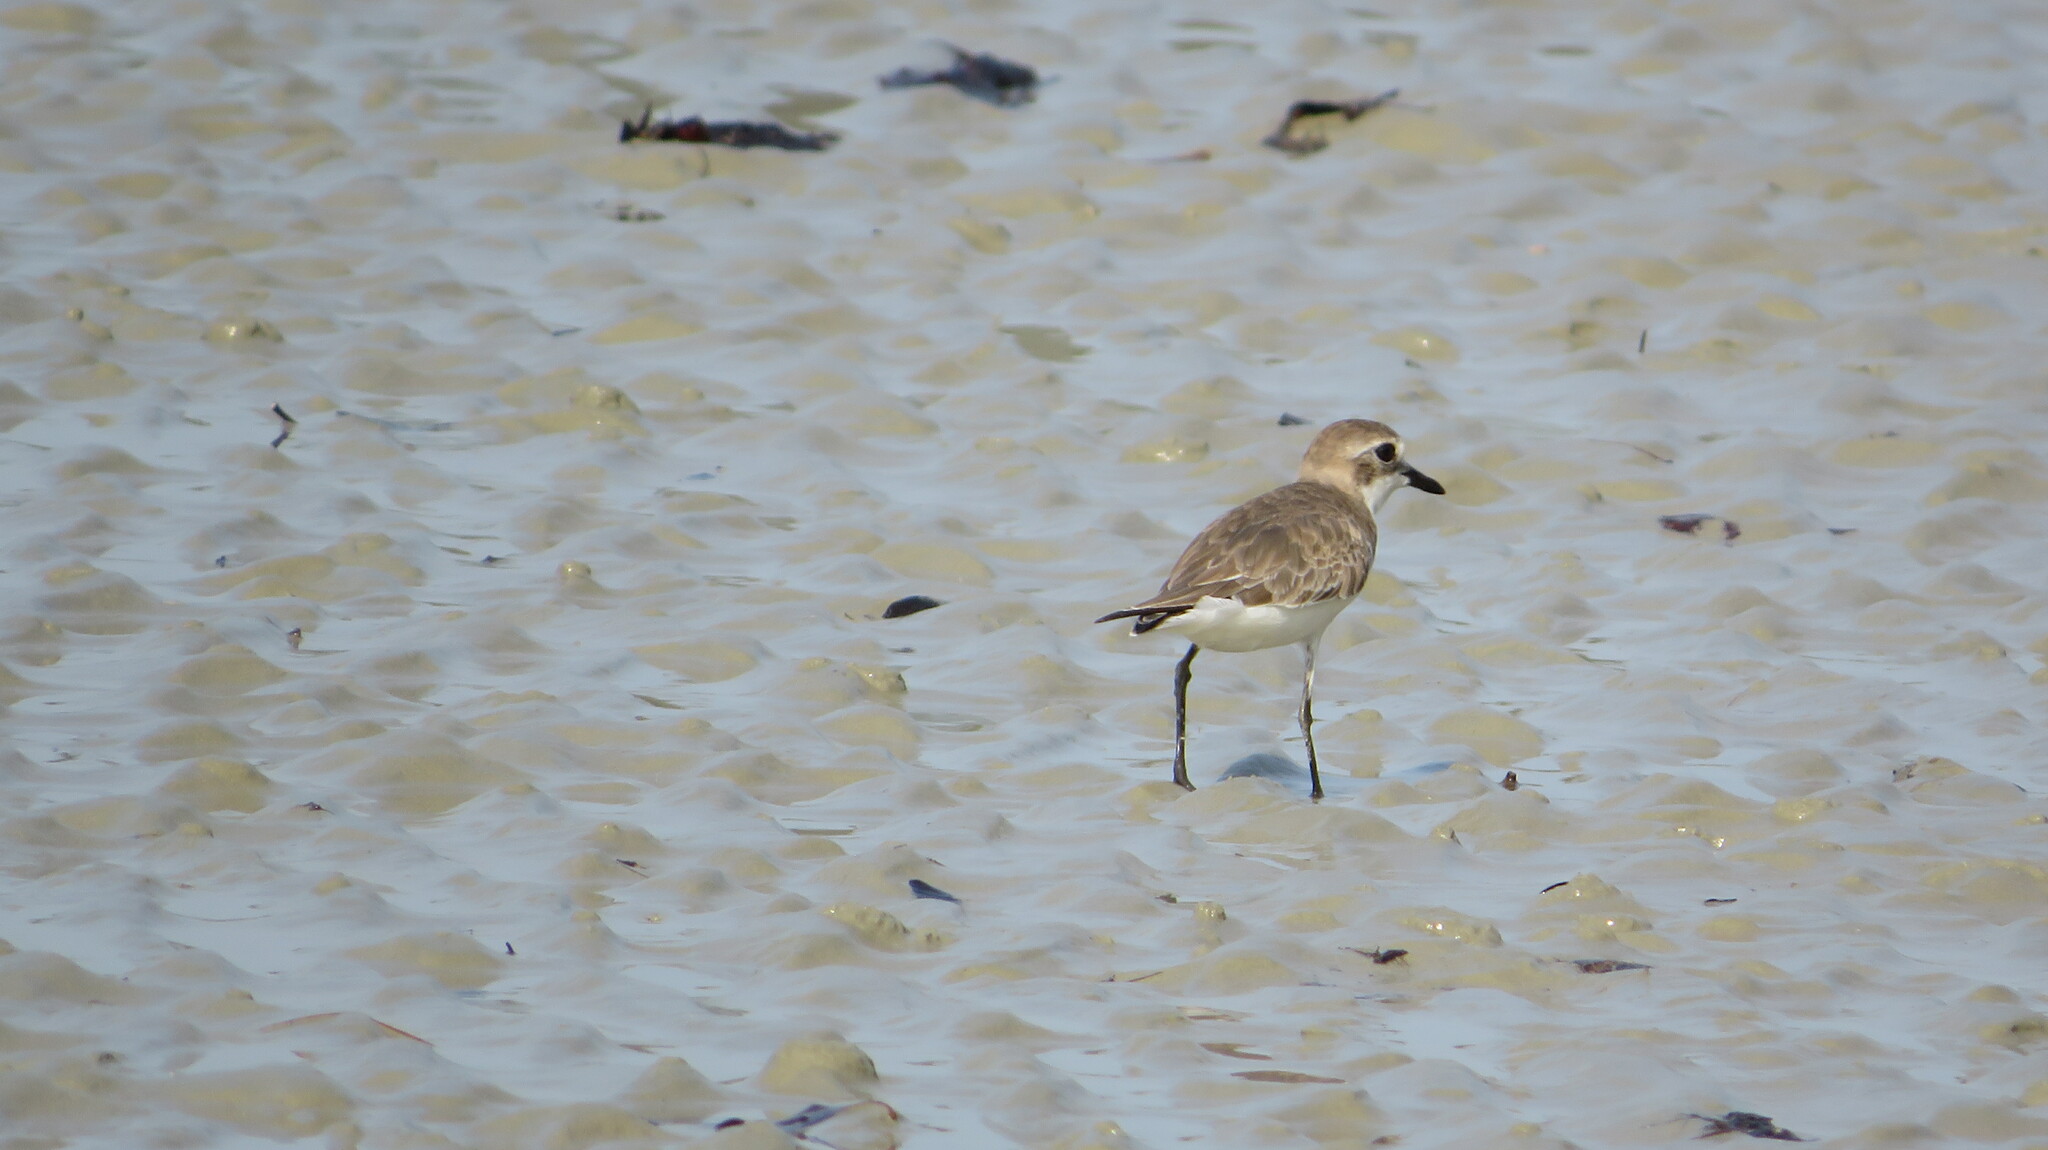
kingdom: Animalia
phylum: Chordata
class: Aves
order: Charadriiformes
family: Charadriidae
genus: Charadrius
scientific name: Charadrius leschenaultii
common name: Greater sand plover
